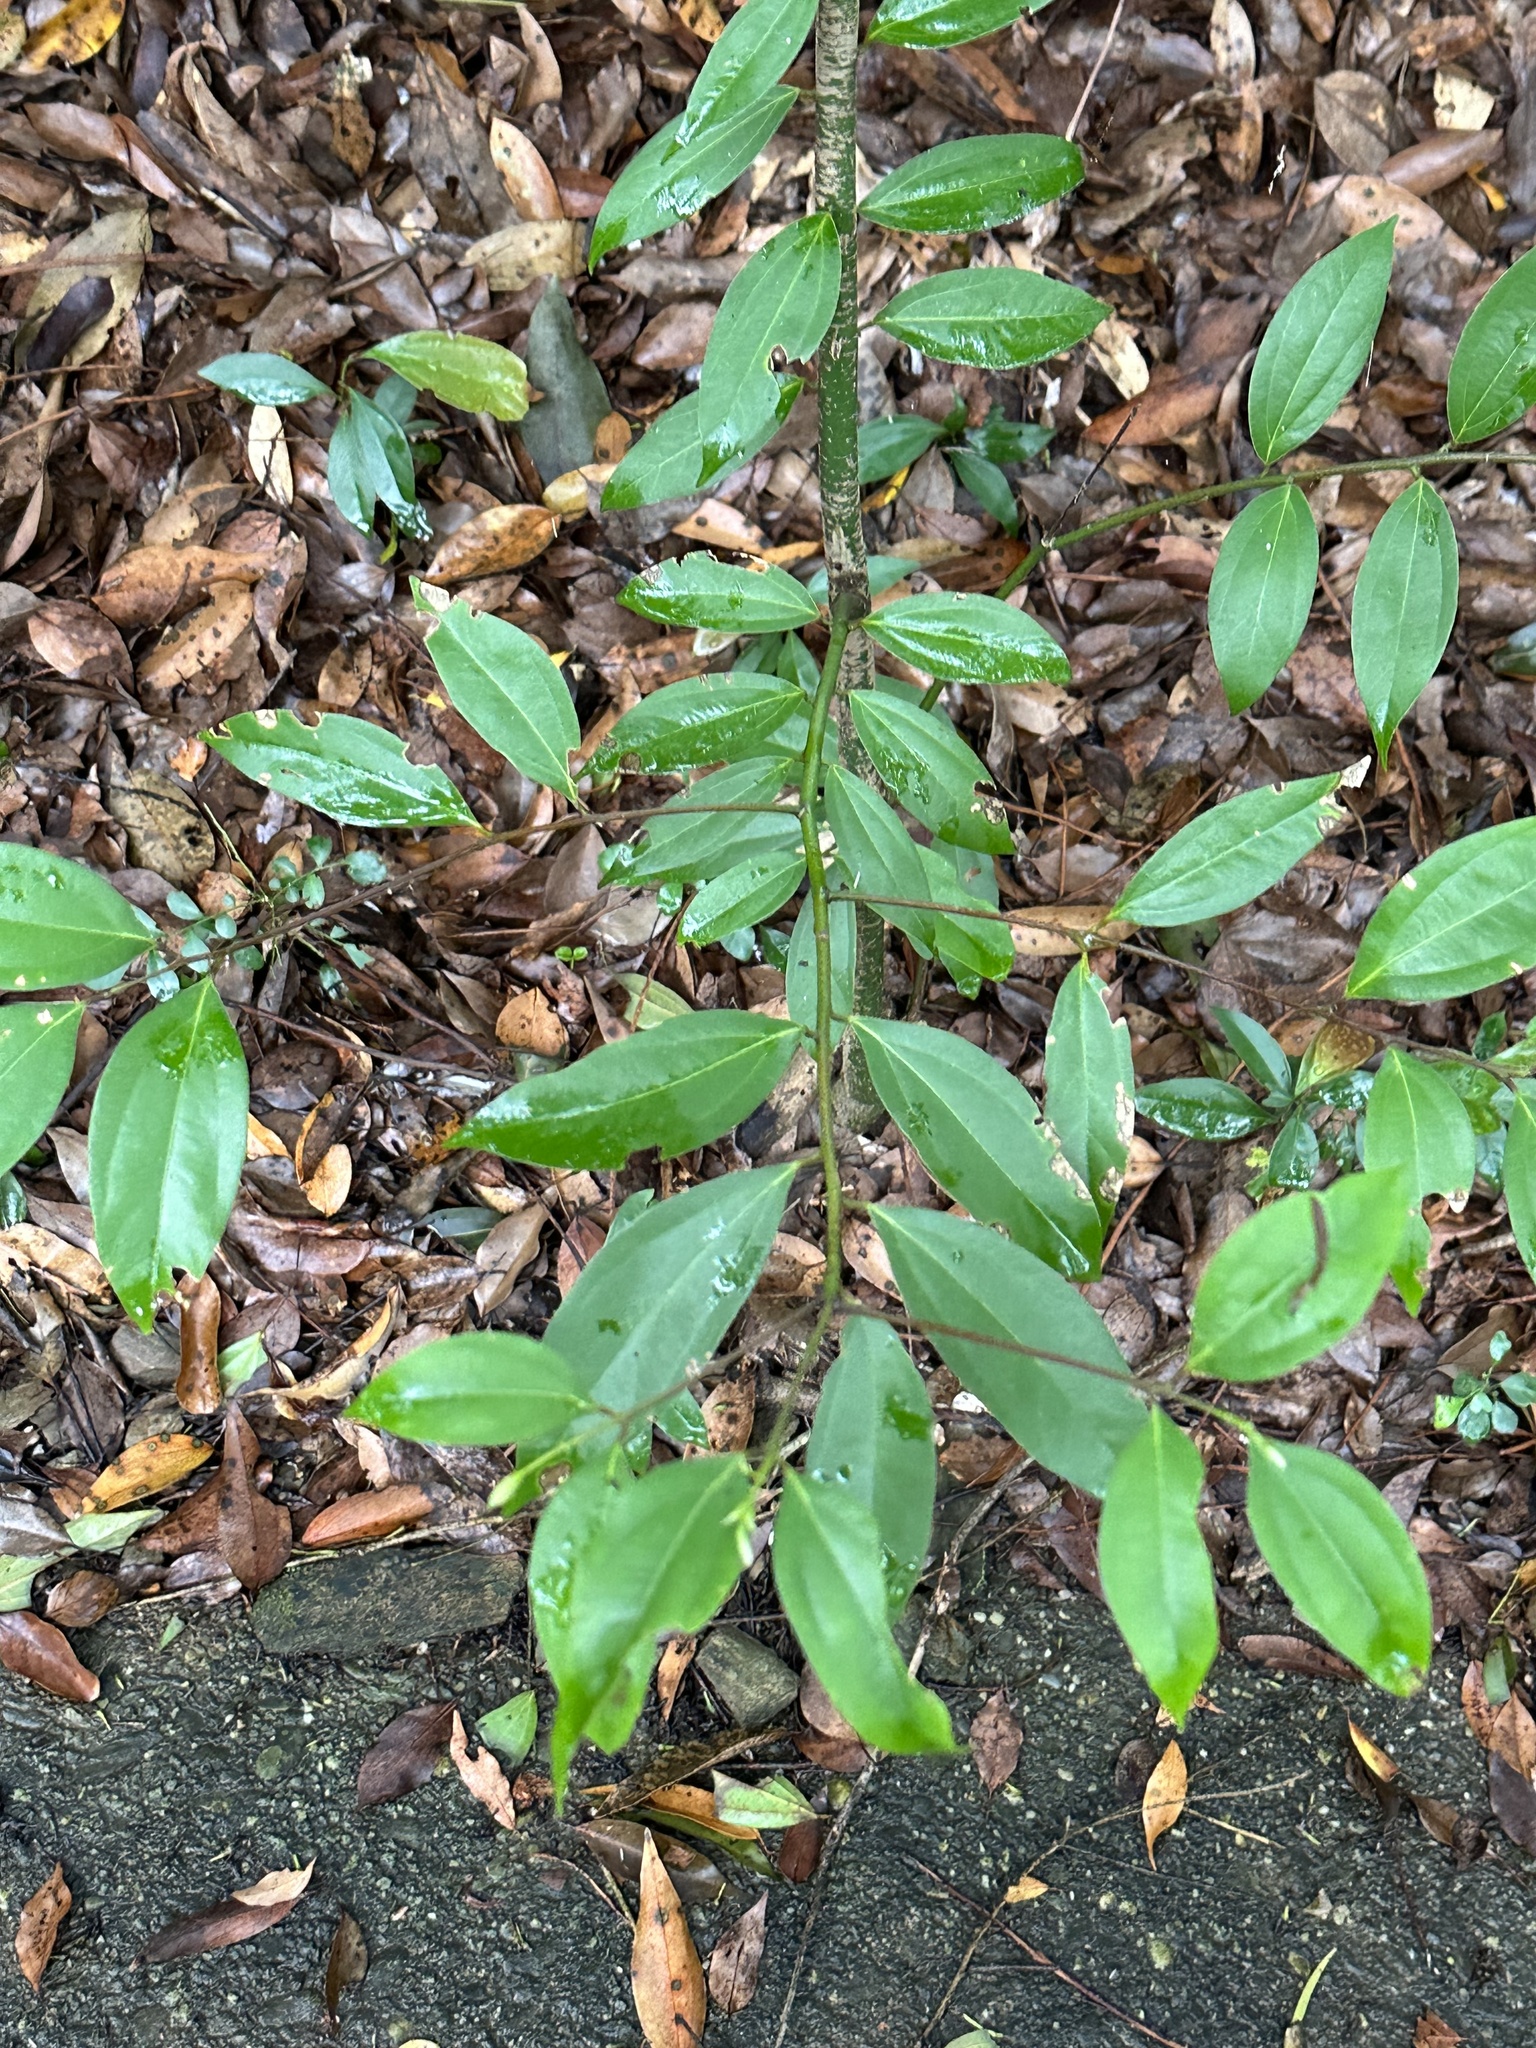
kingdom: Plantae
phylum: Tracheophyta
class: Magnoliopsida
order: Laurales
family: Lauraceae
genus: Cinnamomum
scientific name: Cinnamomum burmanni
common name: Padang cassia
